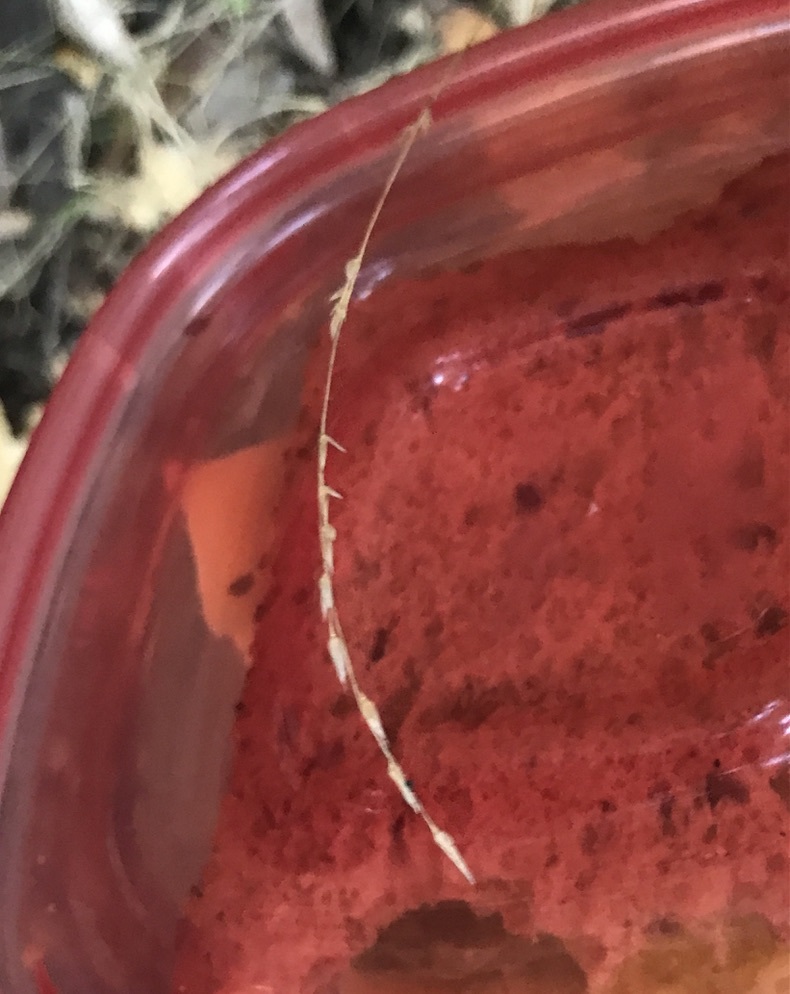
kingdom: Plantae
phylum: Tracheophyta
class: Liliopsida
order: Poales
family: Poaceae
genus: Melica
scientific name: Melica torreyana
